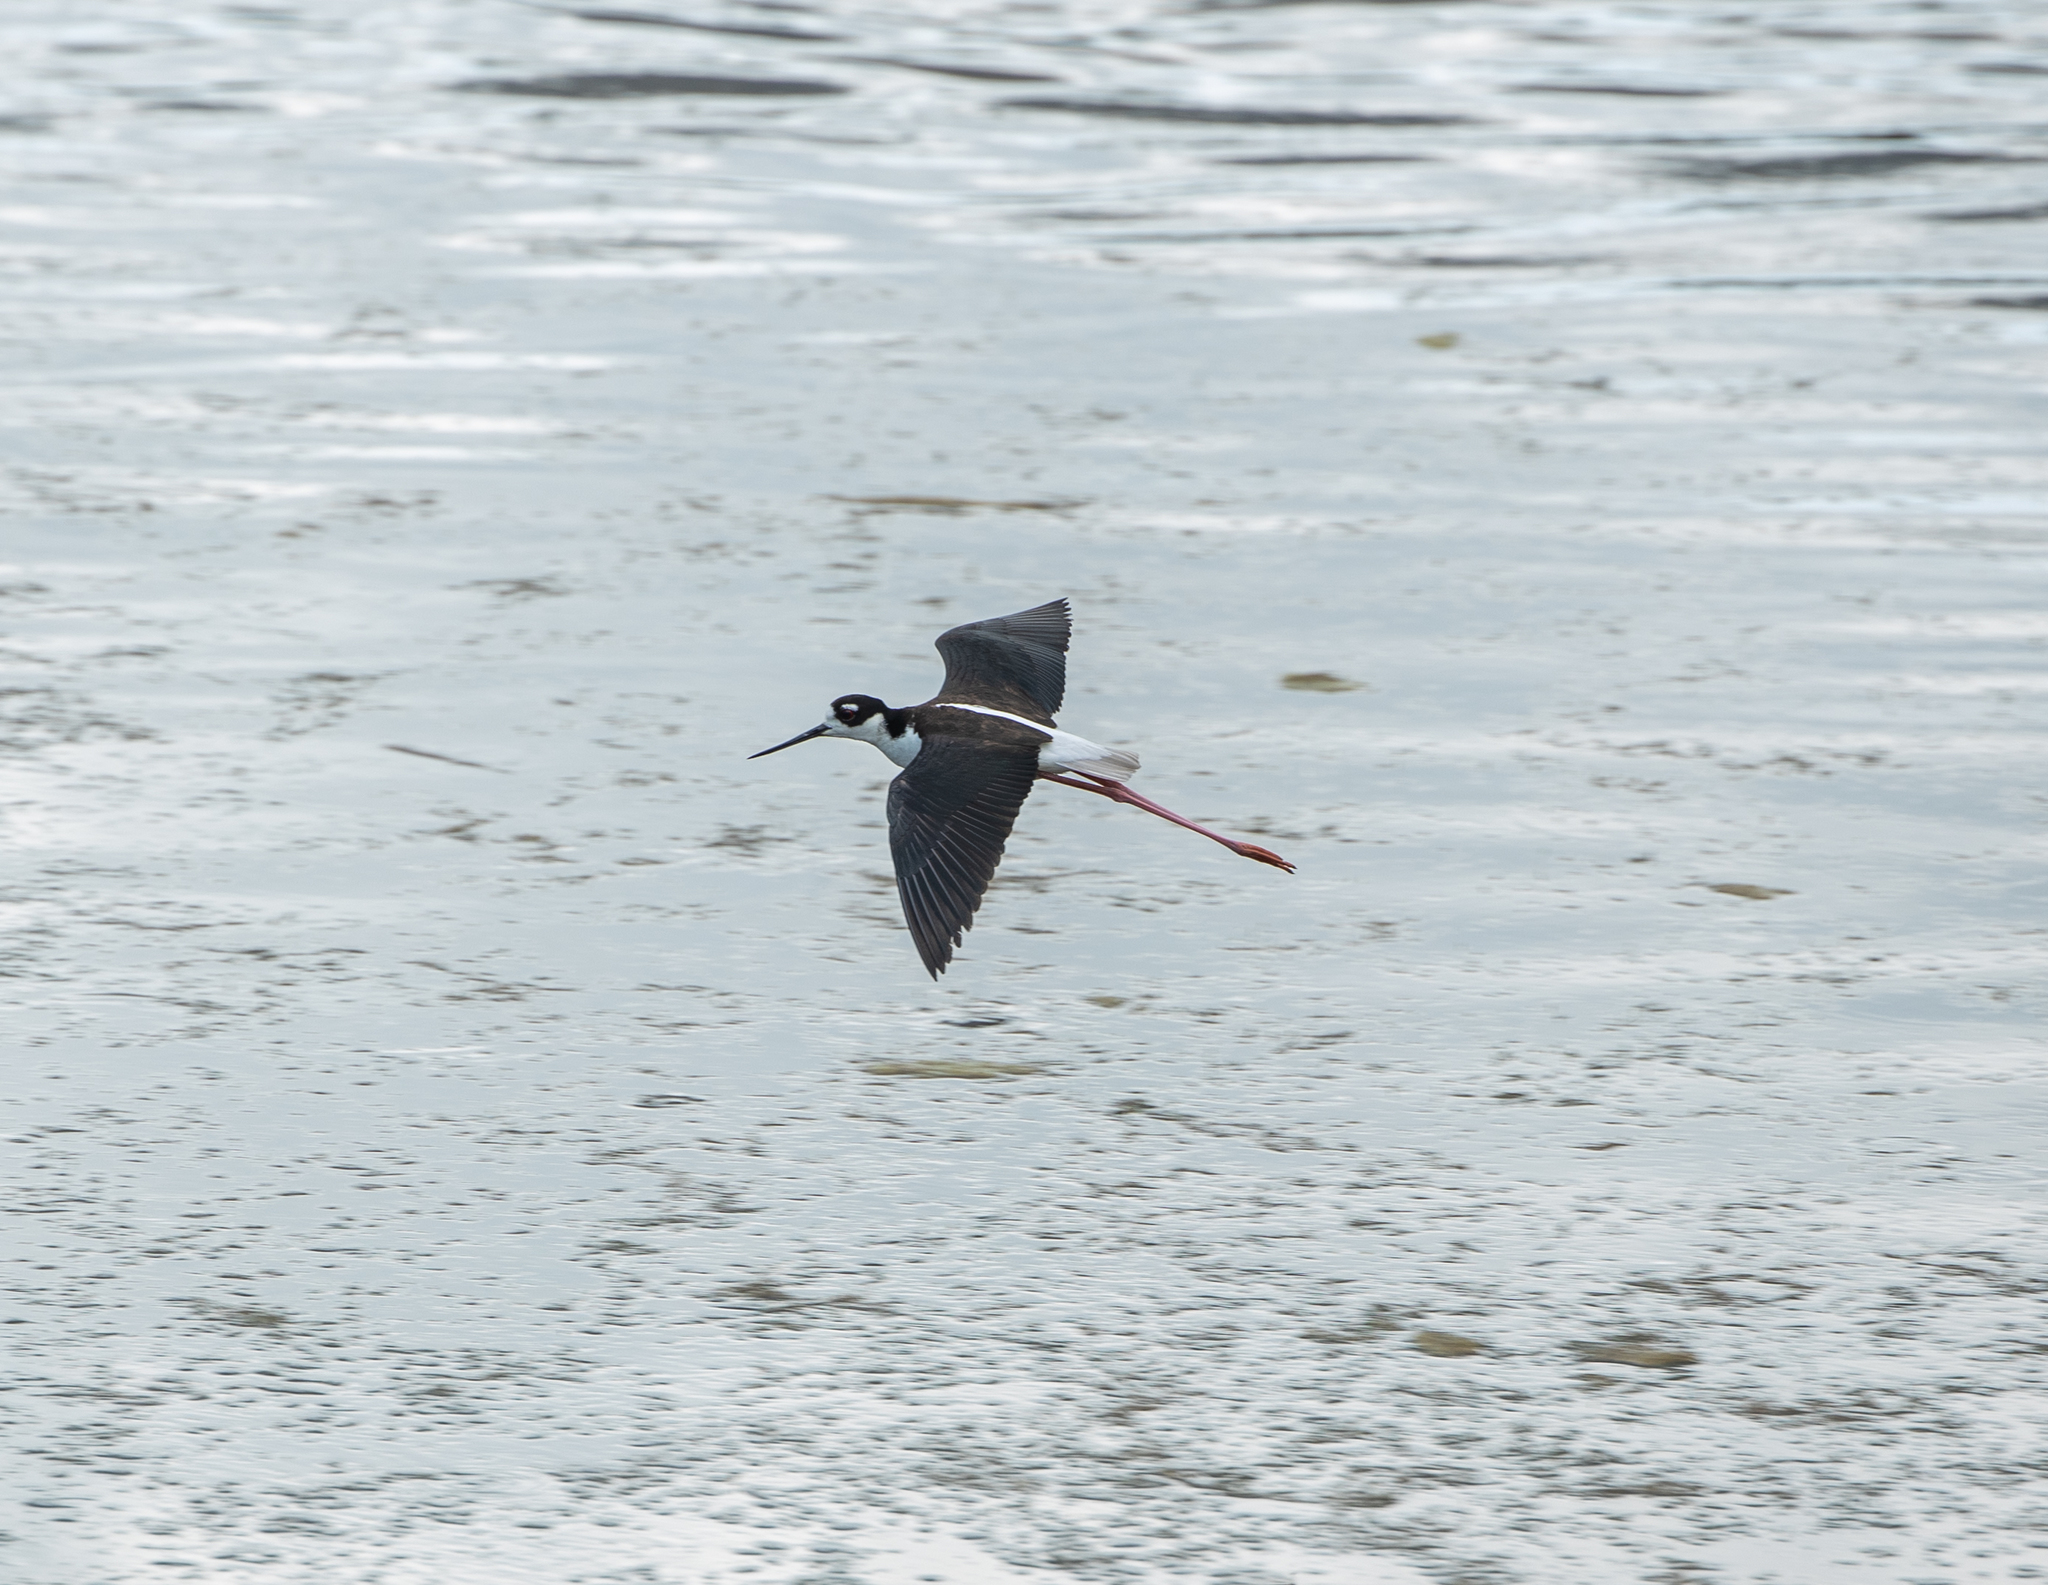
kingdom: Animalia
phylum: Chordata
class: Aves
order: Charadriiformes
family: Recurvirostridae
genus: Himantopus
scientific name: Himantopus mexicanus
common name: Black-necked stilt
